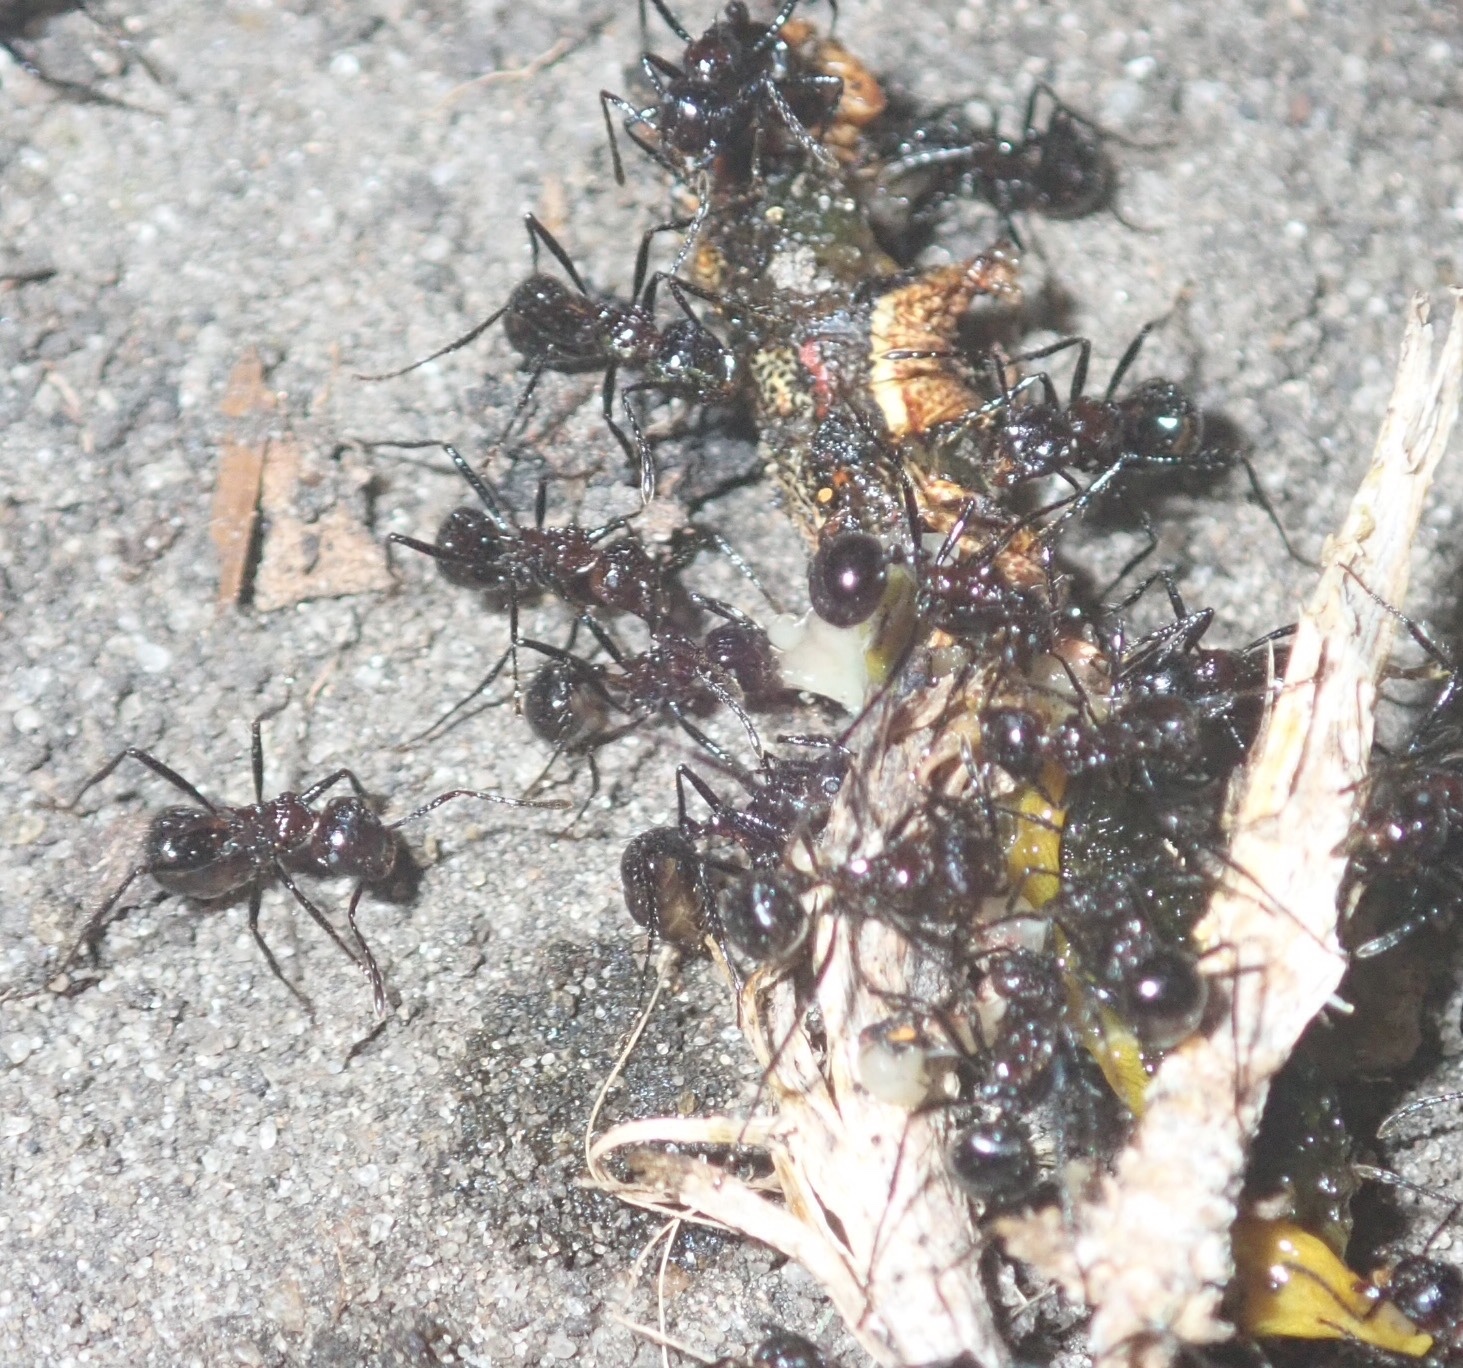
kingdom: Animalia
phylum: Arthropoda
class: Insecta
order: Hymenoptera
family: Formicidae
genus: Myrmicaria
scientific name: Myrmicaria baumi
